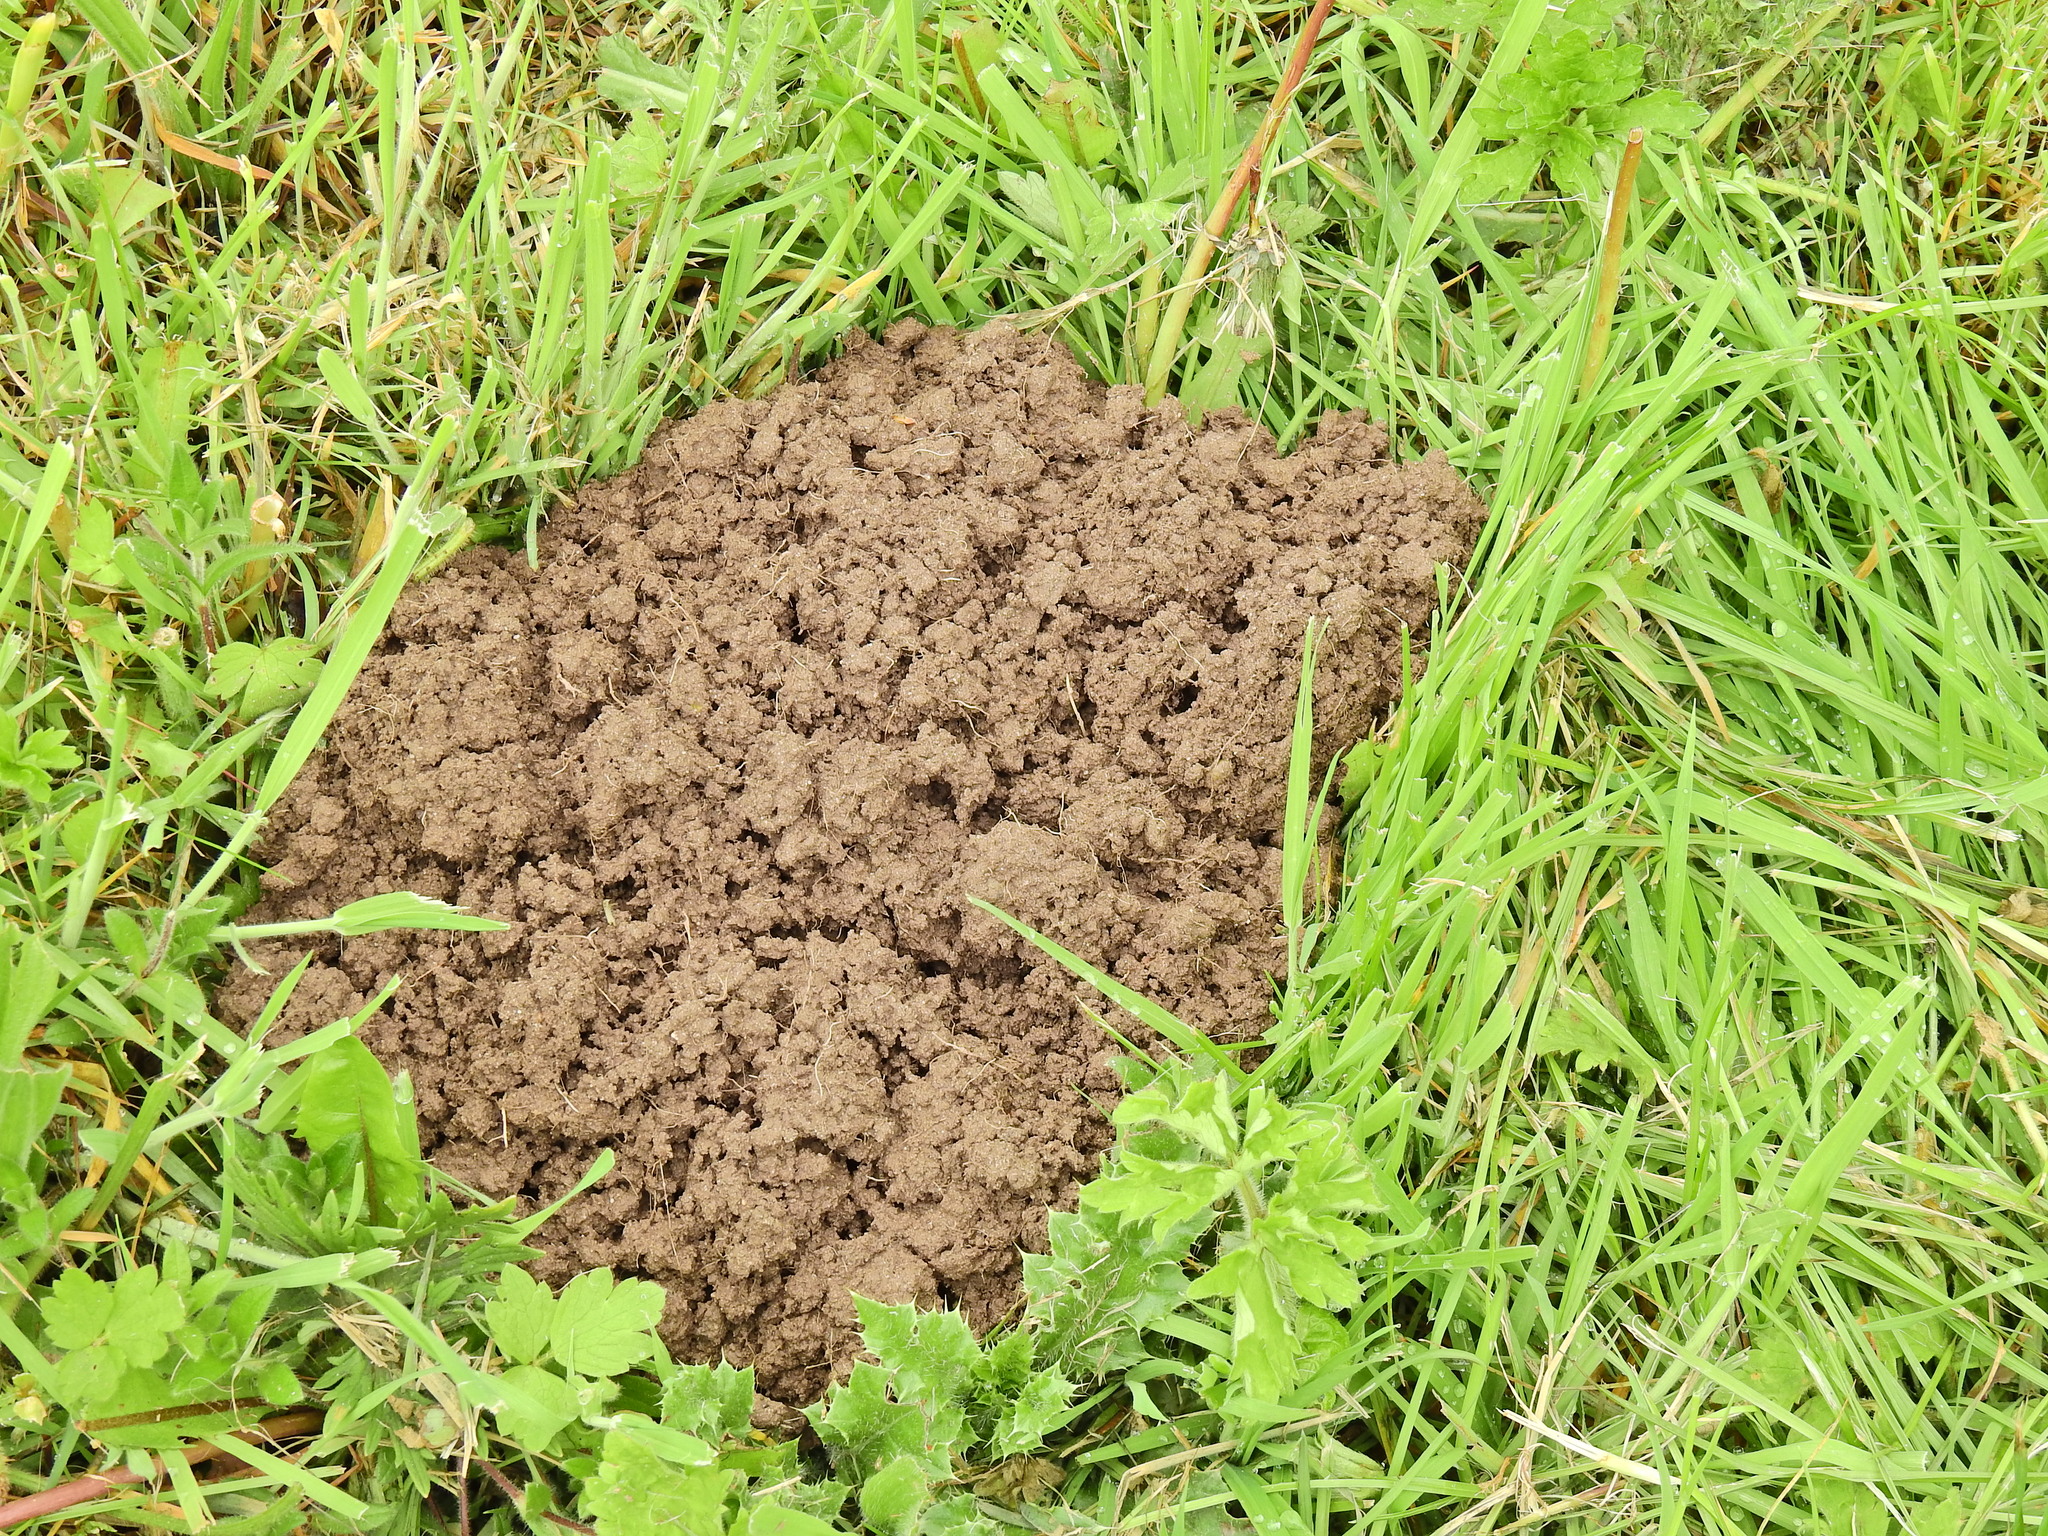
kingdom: Animalia
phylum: Chordata
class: Mammalia
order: Soricomorpha
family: Talpidae
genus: Talpa
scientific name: Talpa europaea
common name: European mole
